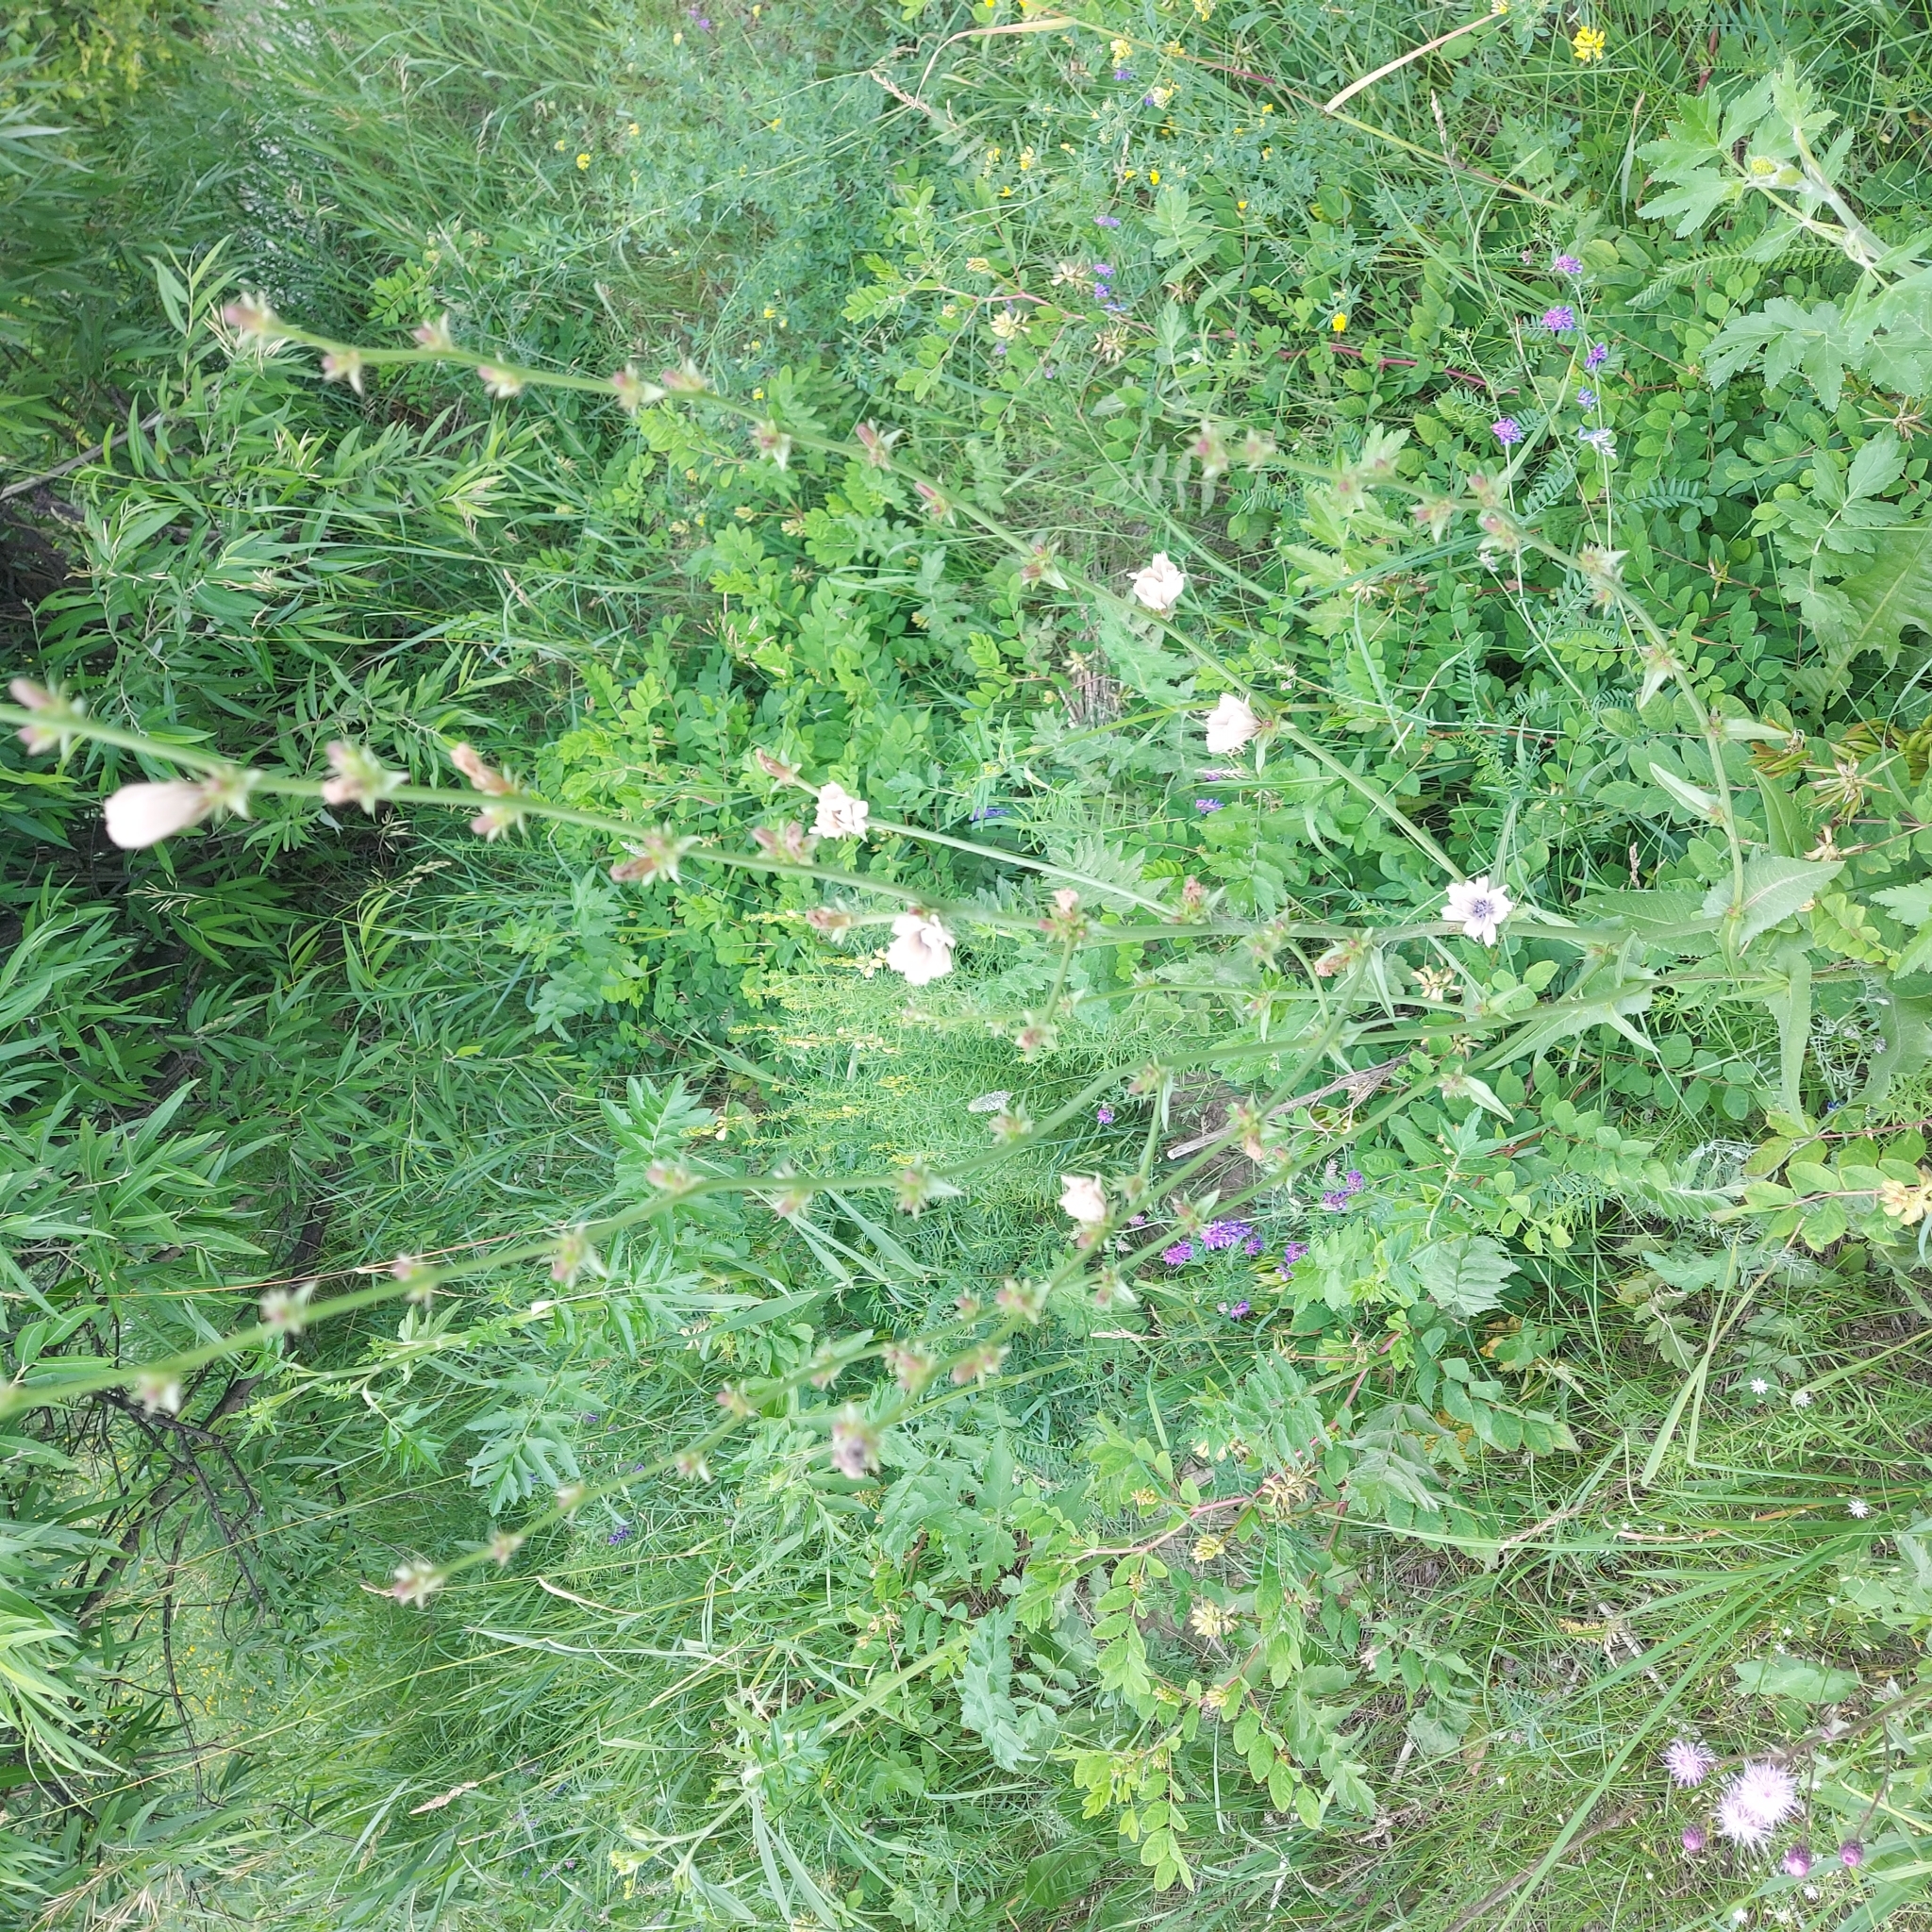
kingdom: Plantae
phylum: Tracheophyta
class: Magnoliopsida
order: Asterales
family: Asteraceae
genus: Cichorium
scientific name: Cichorium intybus
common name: Chicory
